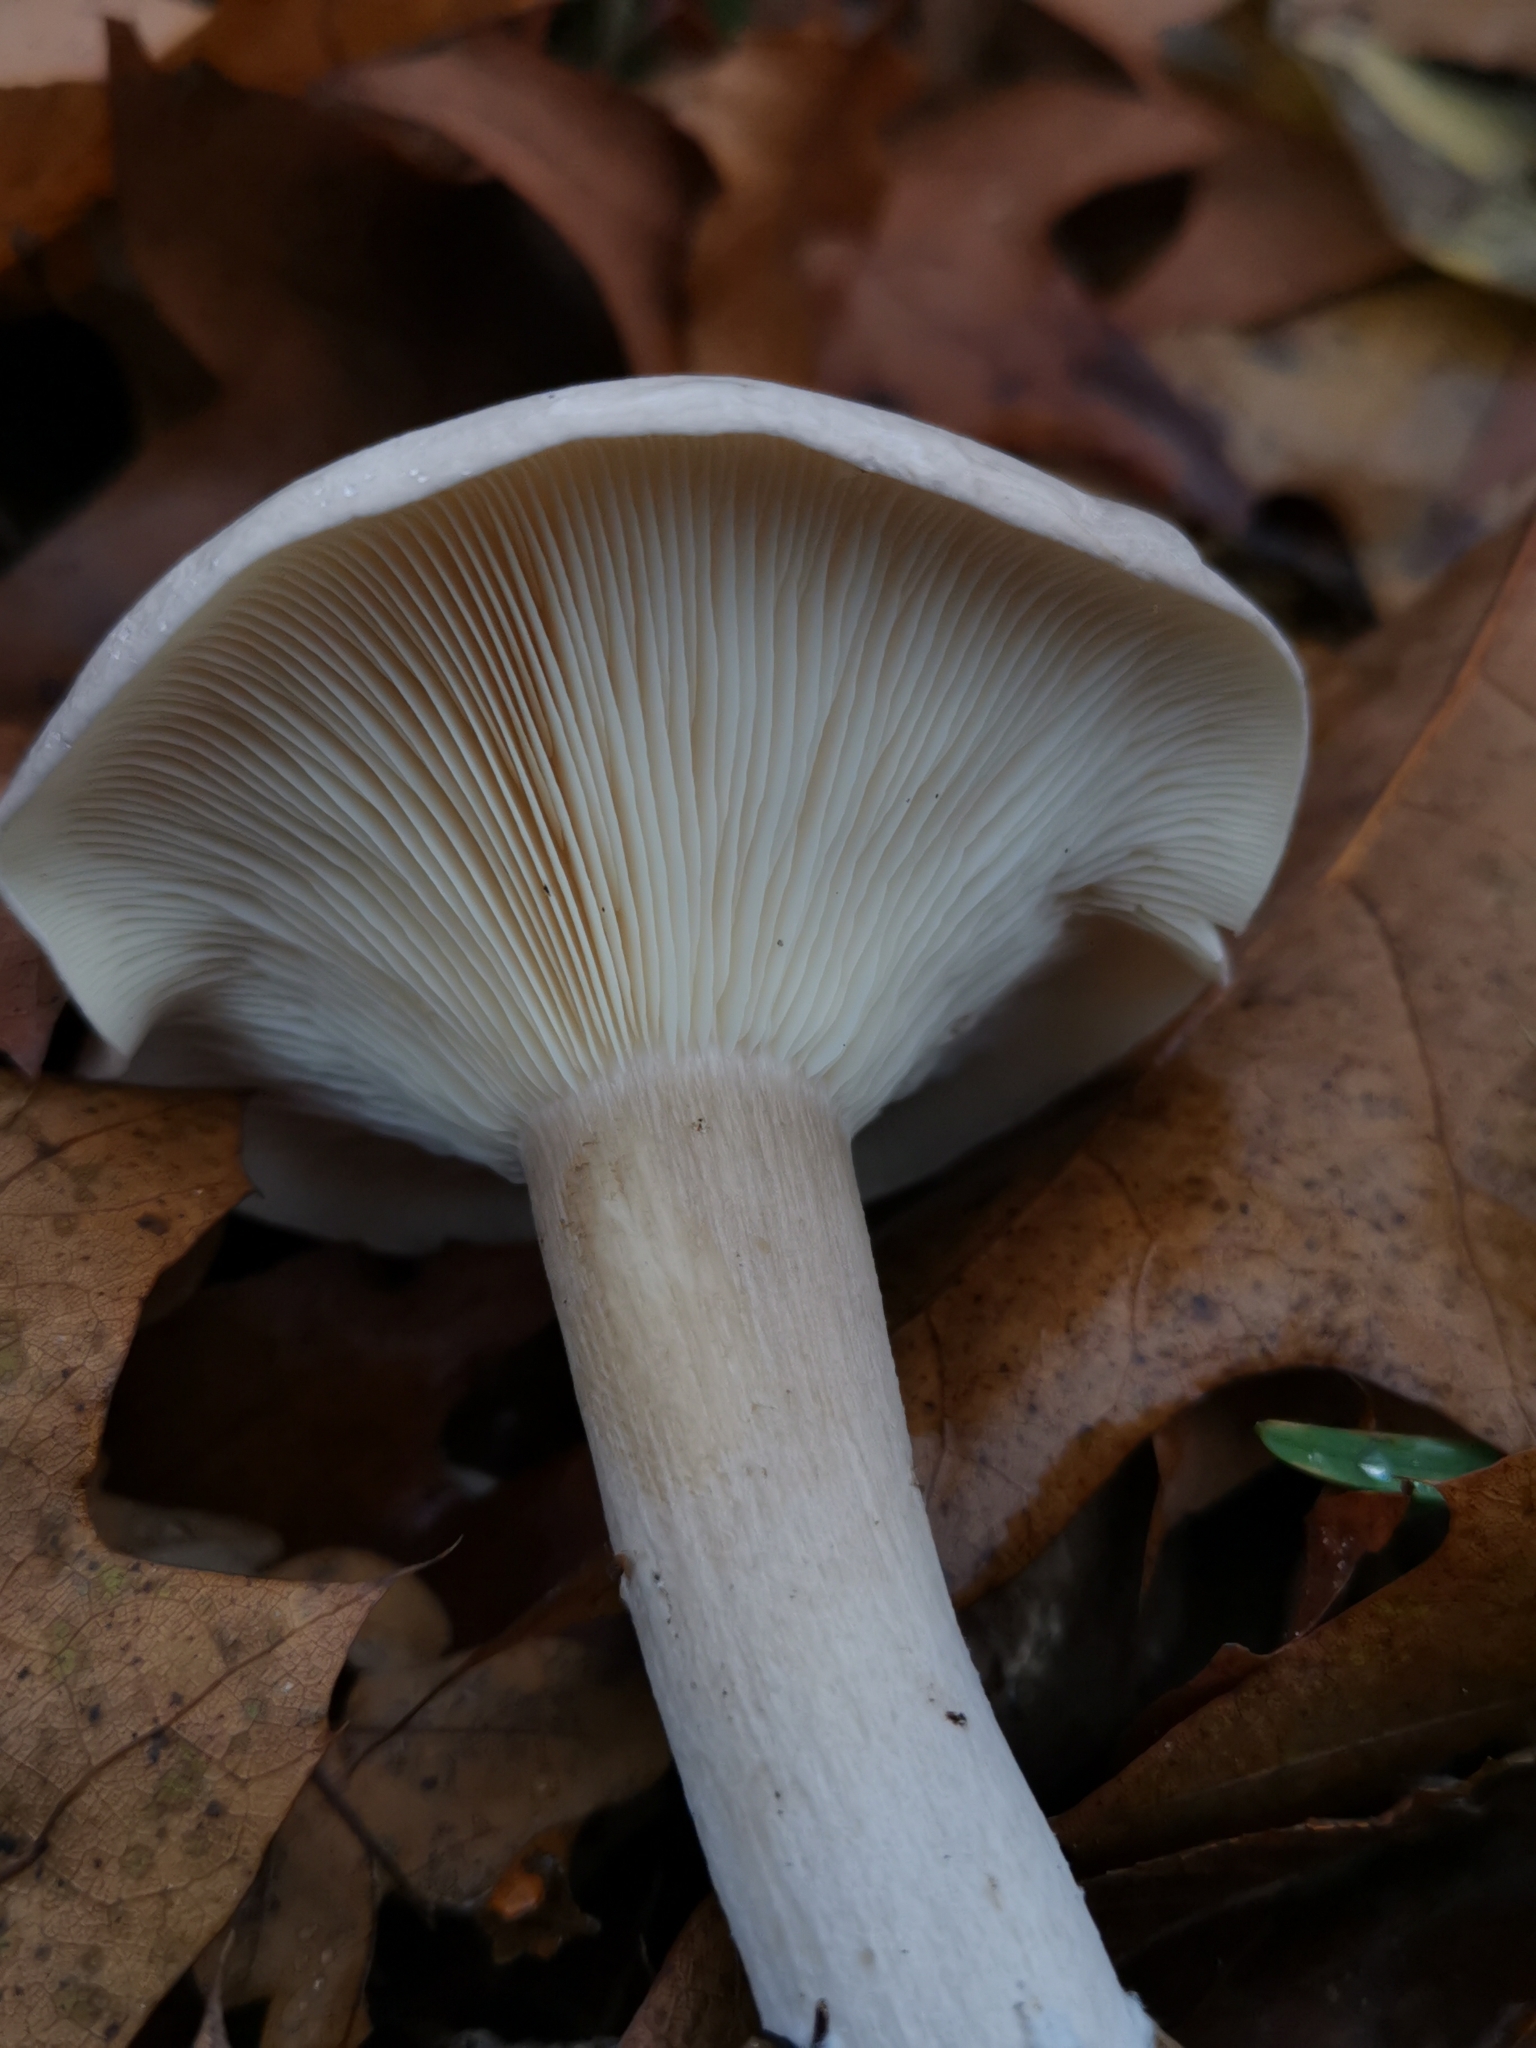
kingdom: Fungi
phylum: Basidiomycota
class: Agaricomycetes
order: Agaricales
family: Tricholomataceae
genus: Clitocybe
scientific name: Clitocybe nebularis
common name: Clouded agaric
